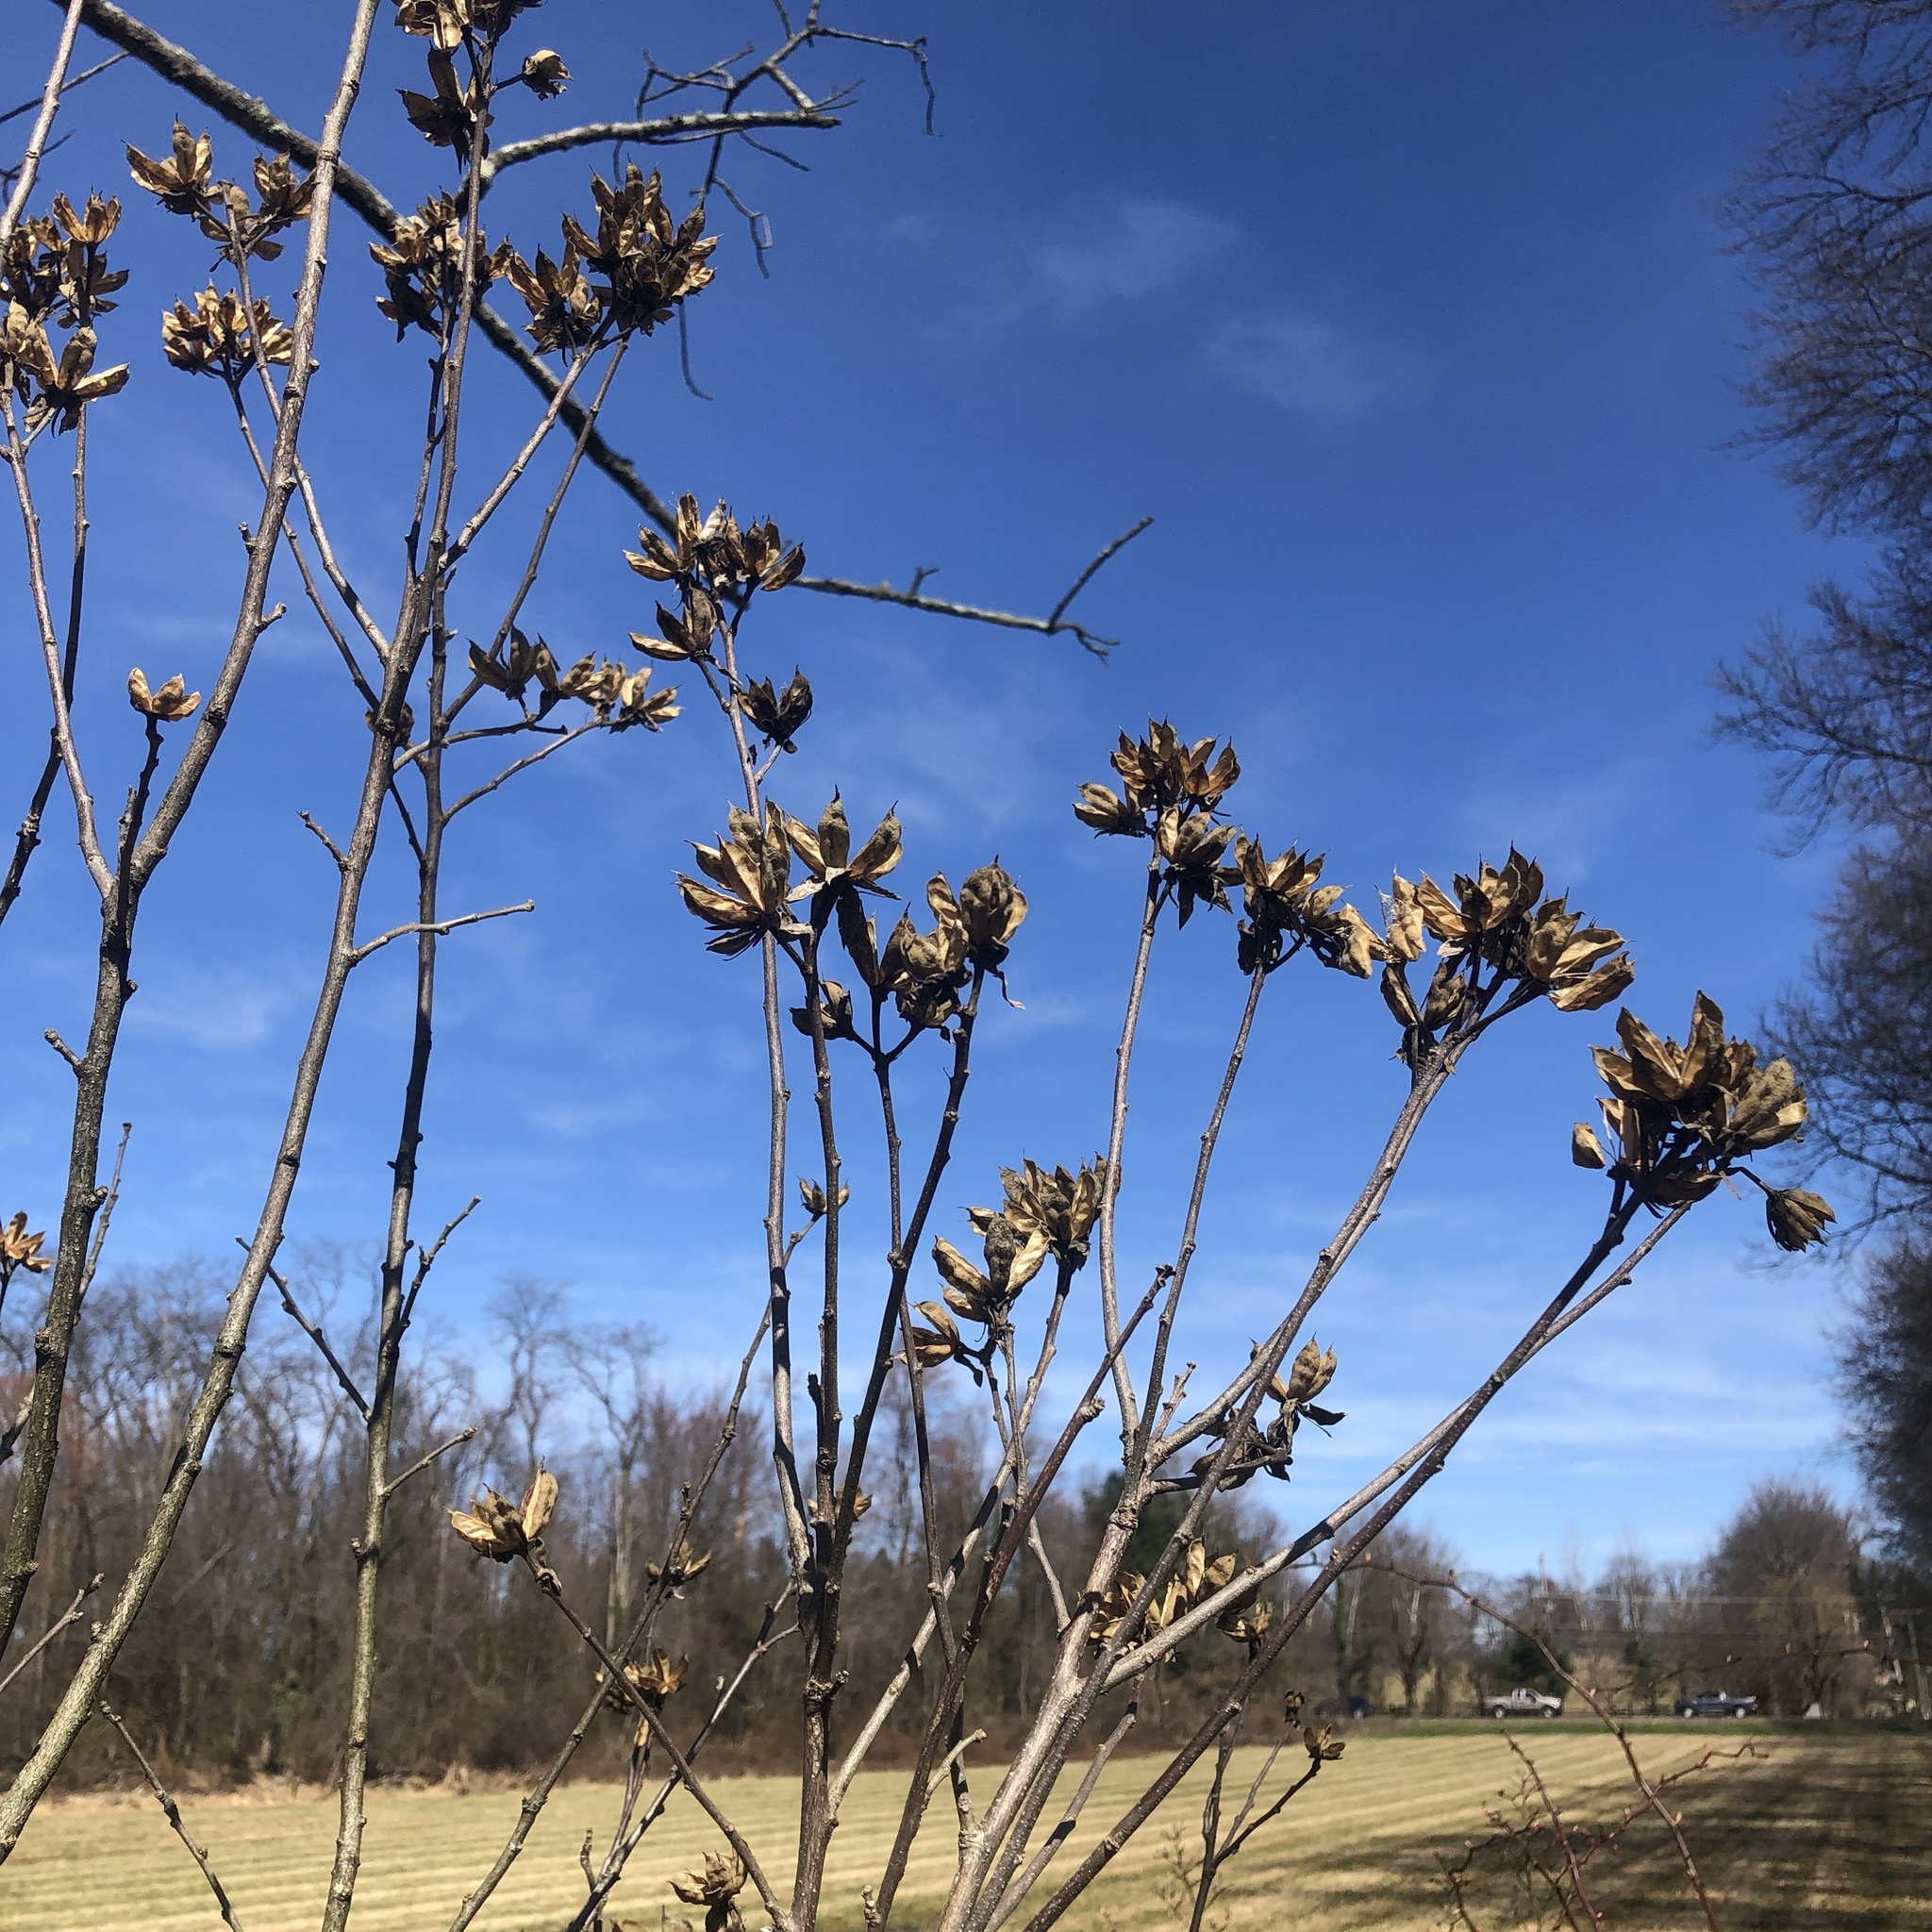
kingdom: Plantae
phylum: Tracheophyta
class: Magnoliopsida
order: Malvales
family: Malvaceae
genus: Hibiscus
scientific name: Hibiscus syriacus
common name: Syrian ketmia
